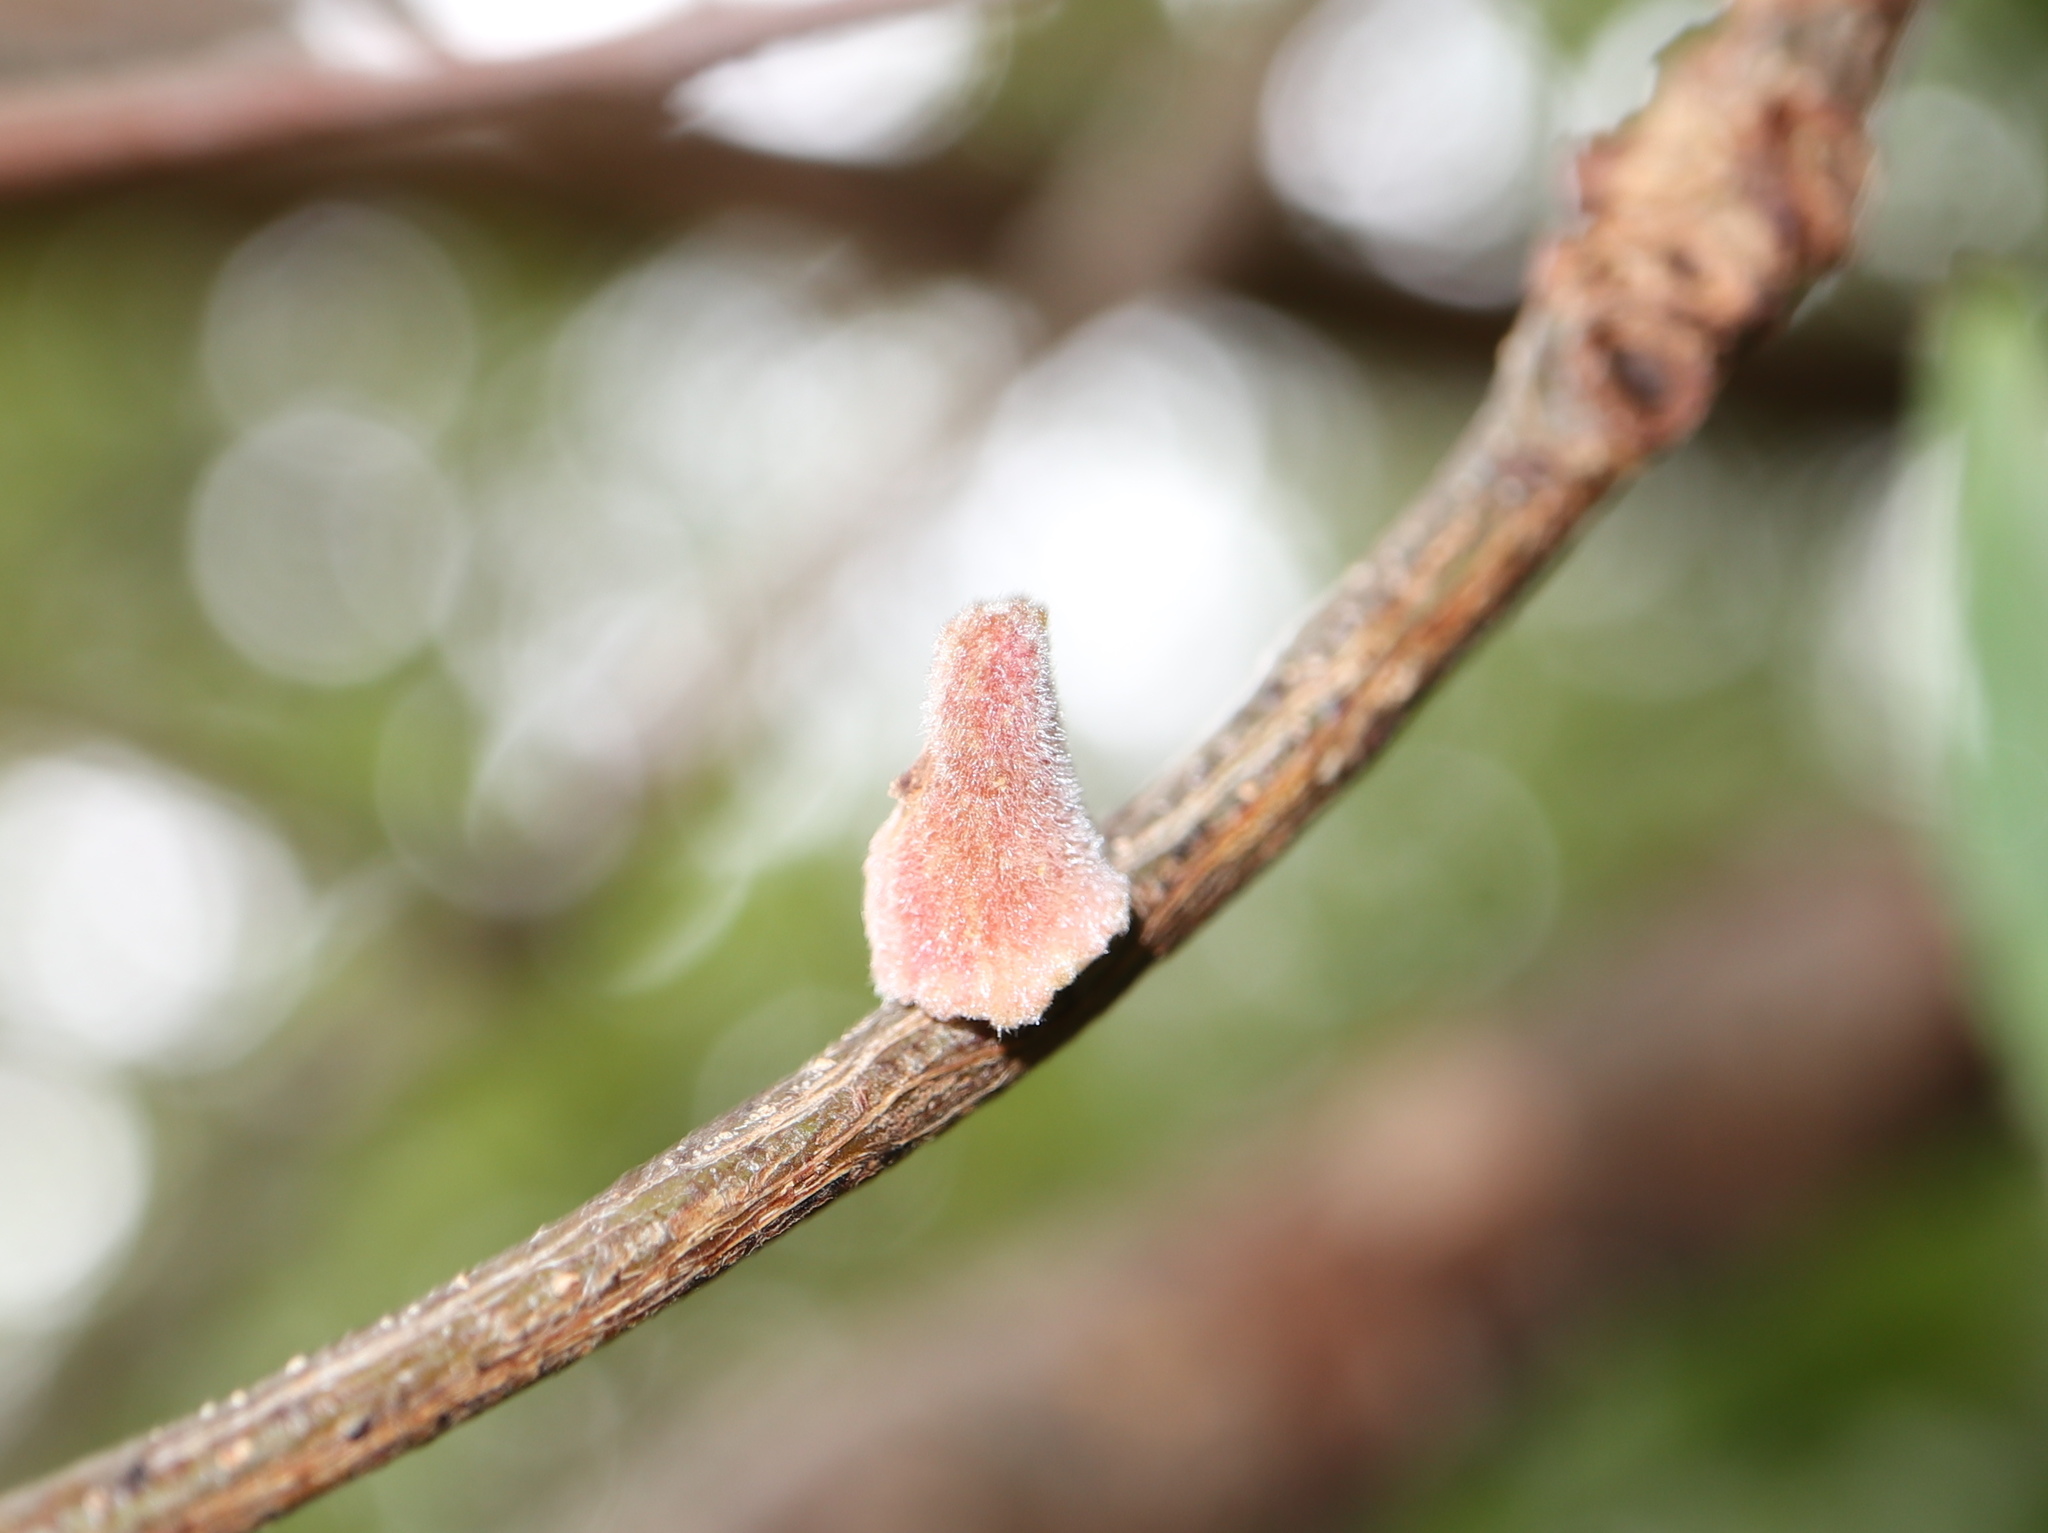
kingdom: Animalia
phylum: Arthropoda
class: Insecta
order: Hymenoptera
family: Cynipidae
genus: Callirhytis
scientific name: Callirhytis
